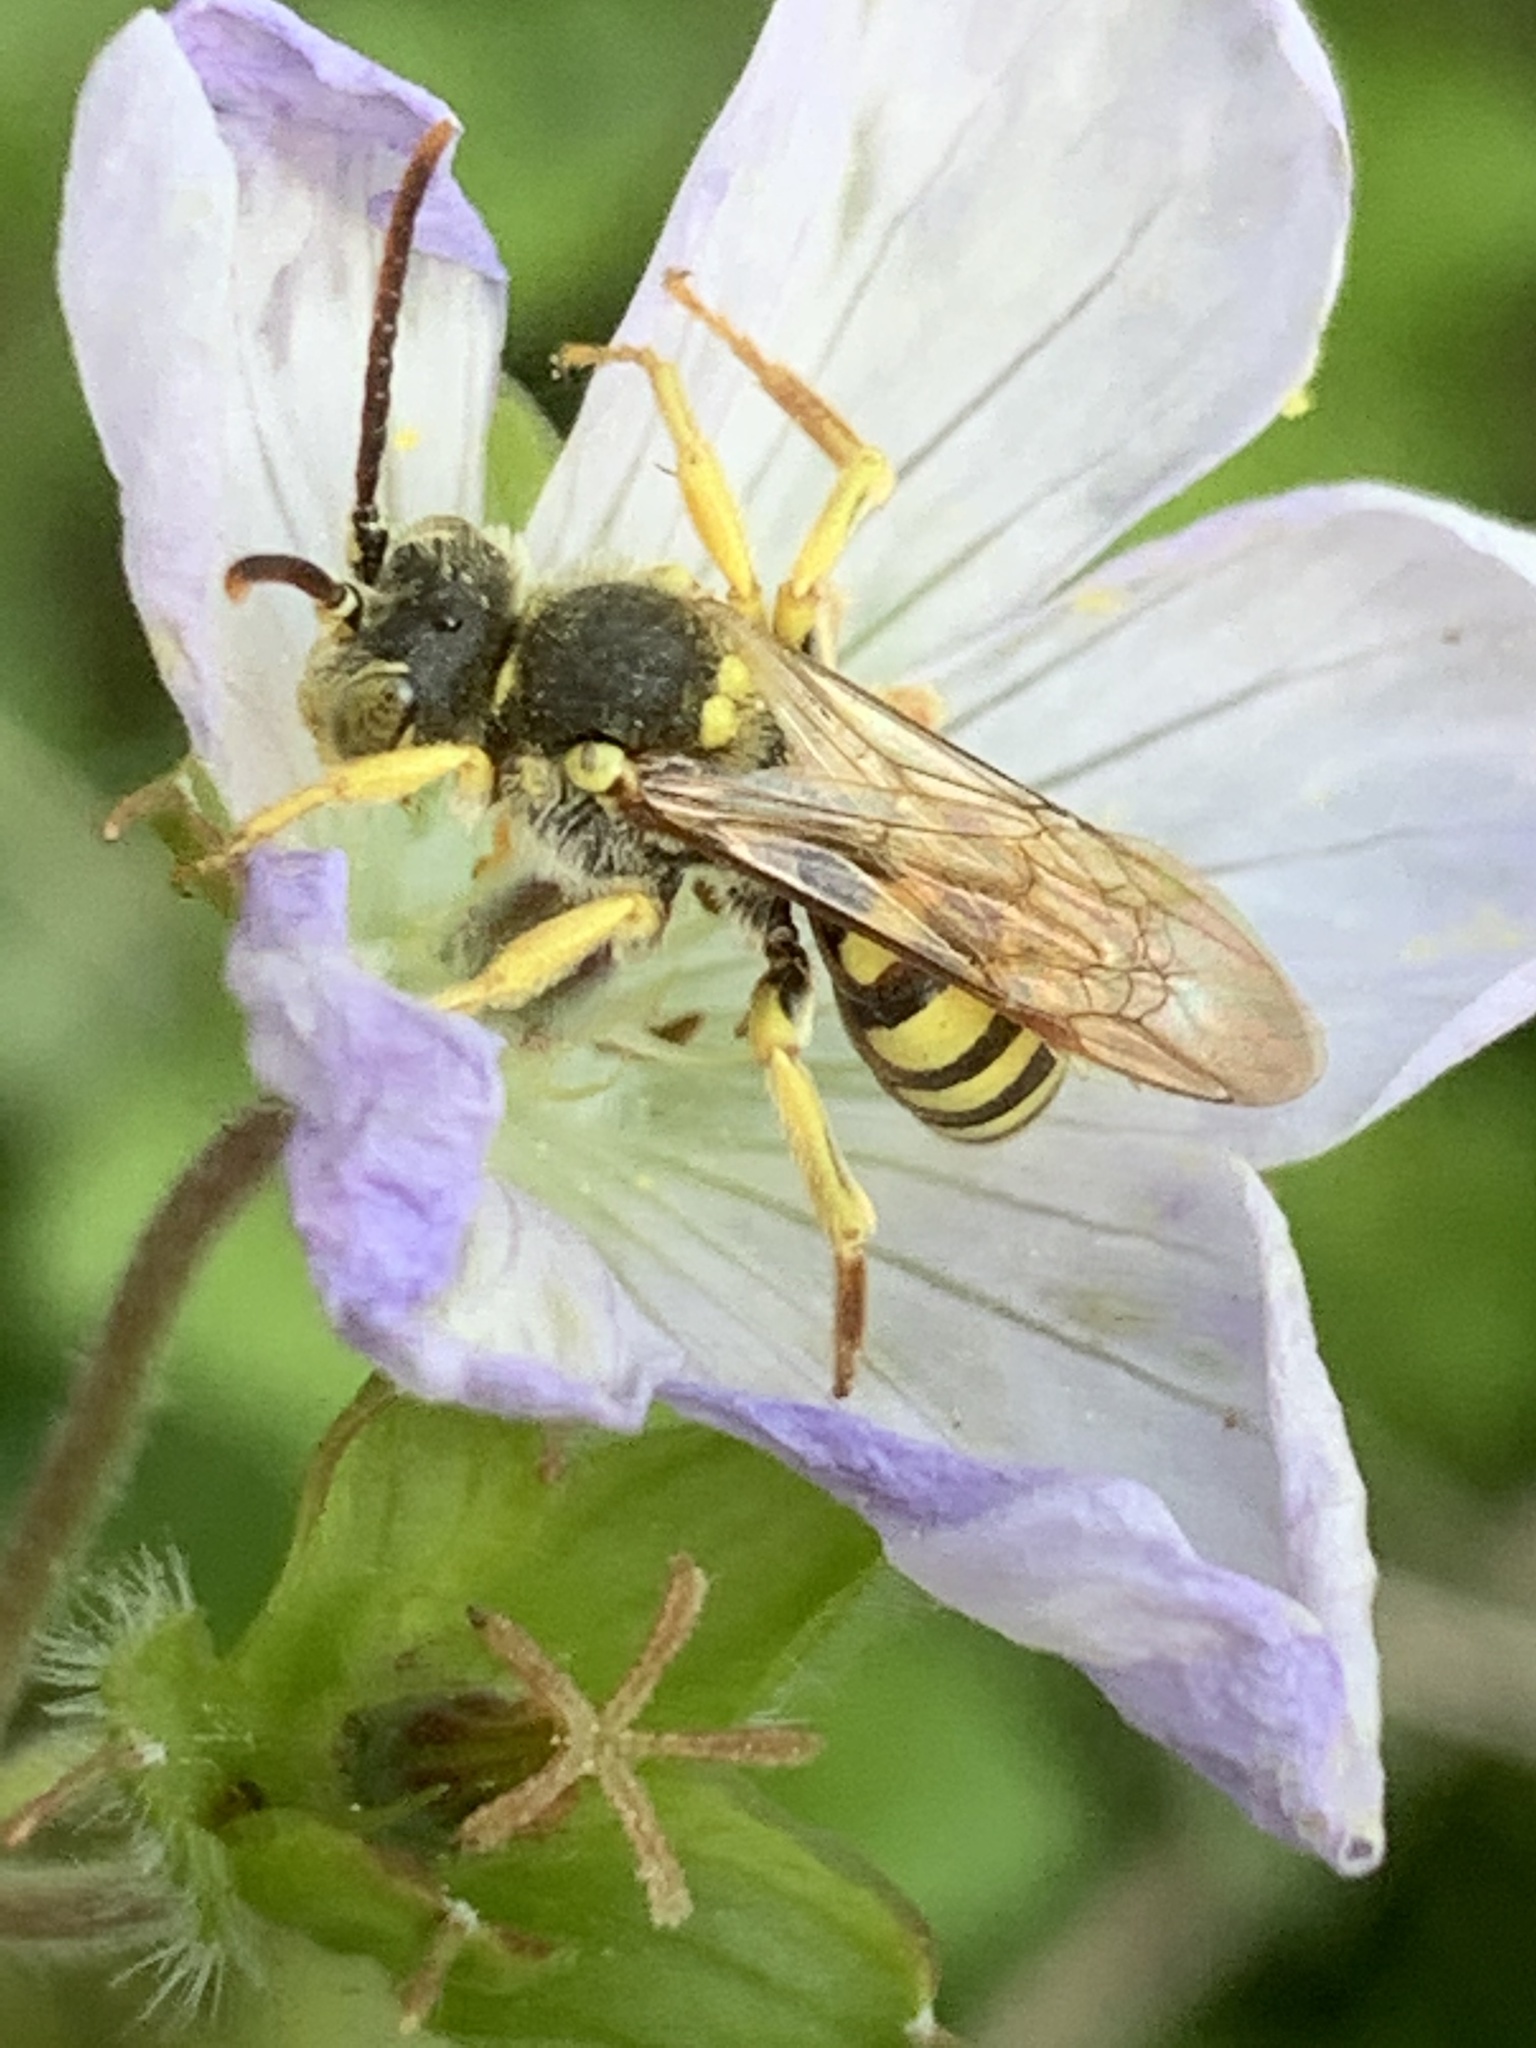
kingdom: Animalia
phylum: Arthropoda
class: Insecta
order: Hymenoptera
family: Apidae
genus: Nomada
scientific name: Nomada luteoloides
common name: Black-and-yellow nomad bee
